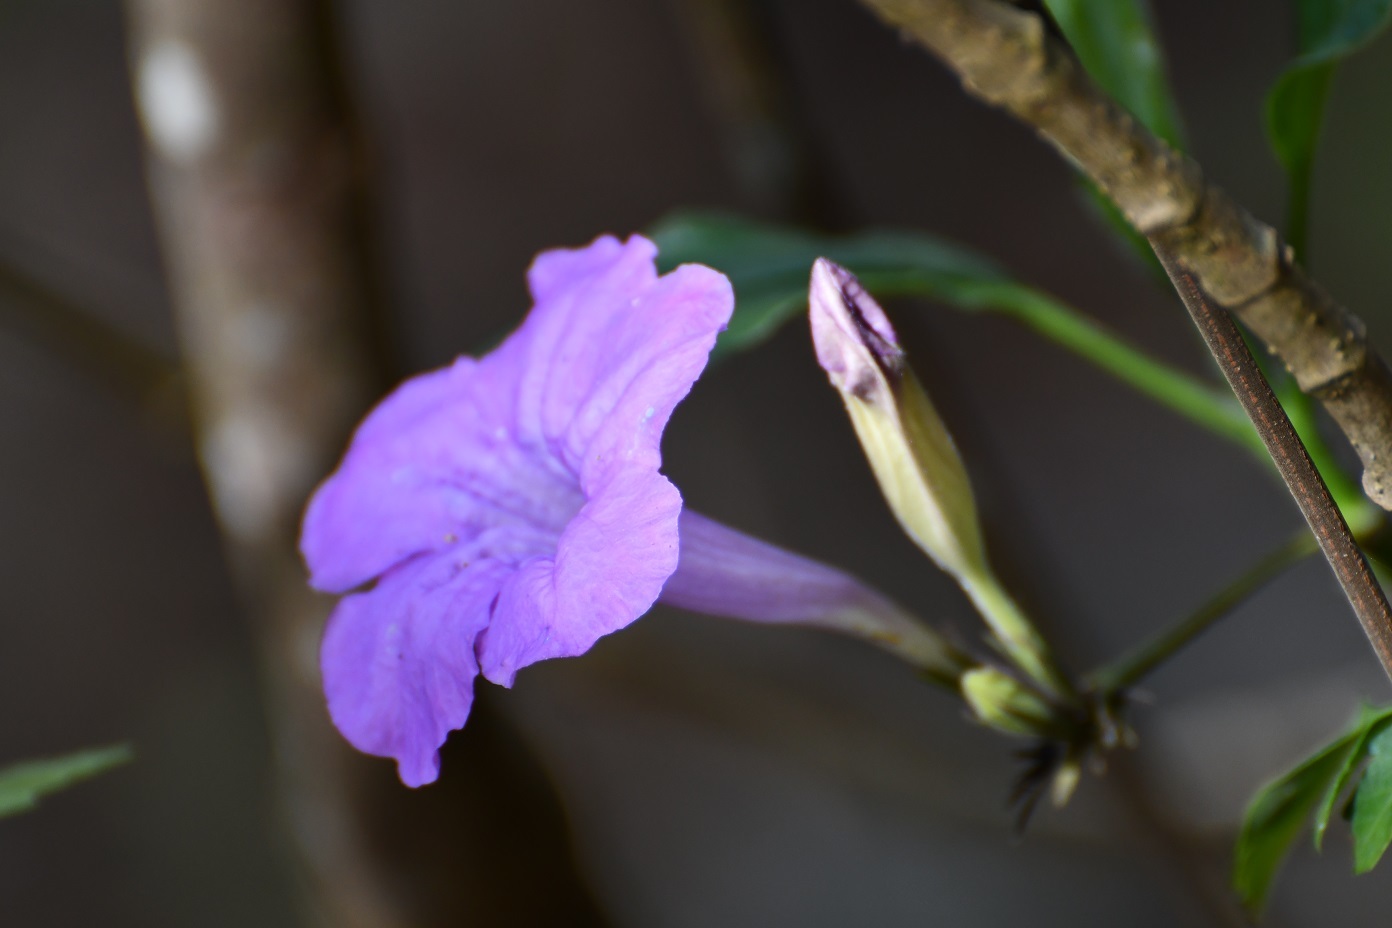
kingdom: Plantae
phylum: Tracheophyta
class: Magnoliopsida
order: Lamiales
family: Acanthaceae
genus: Ruellia
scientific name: Ruellia breedlovei
